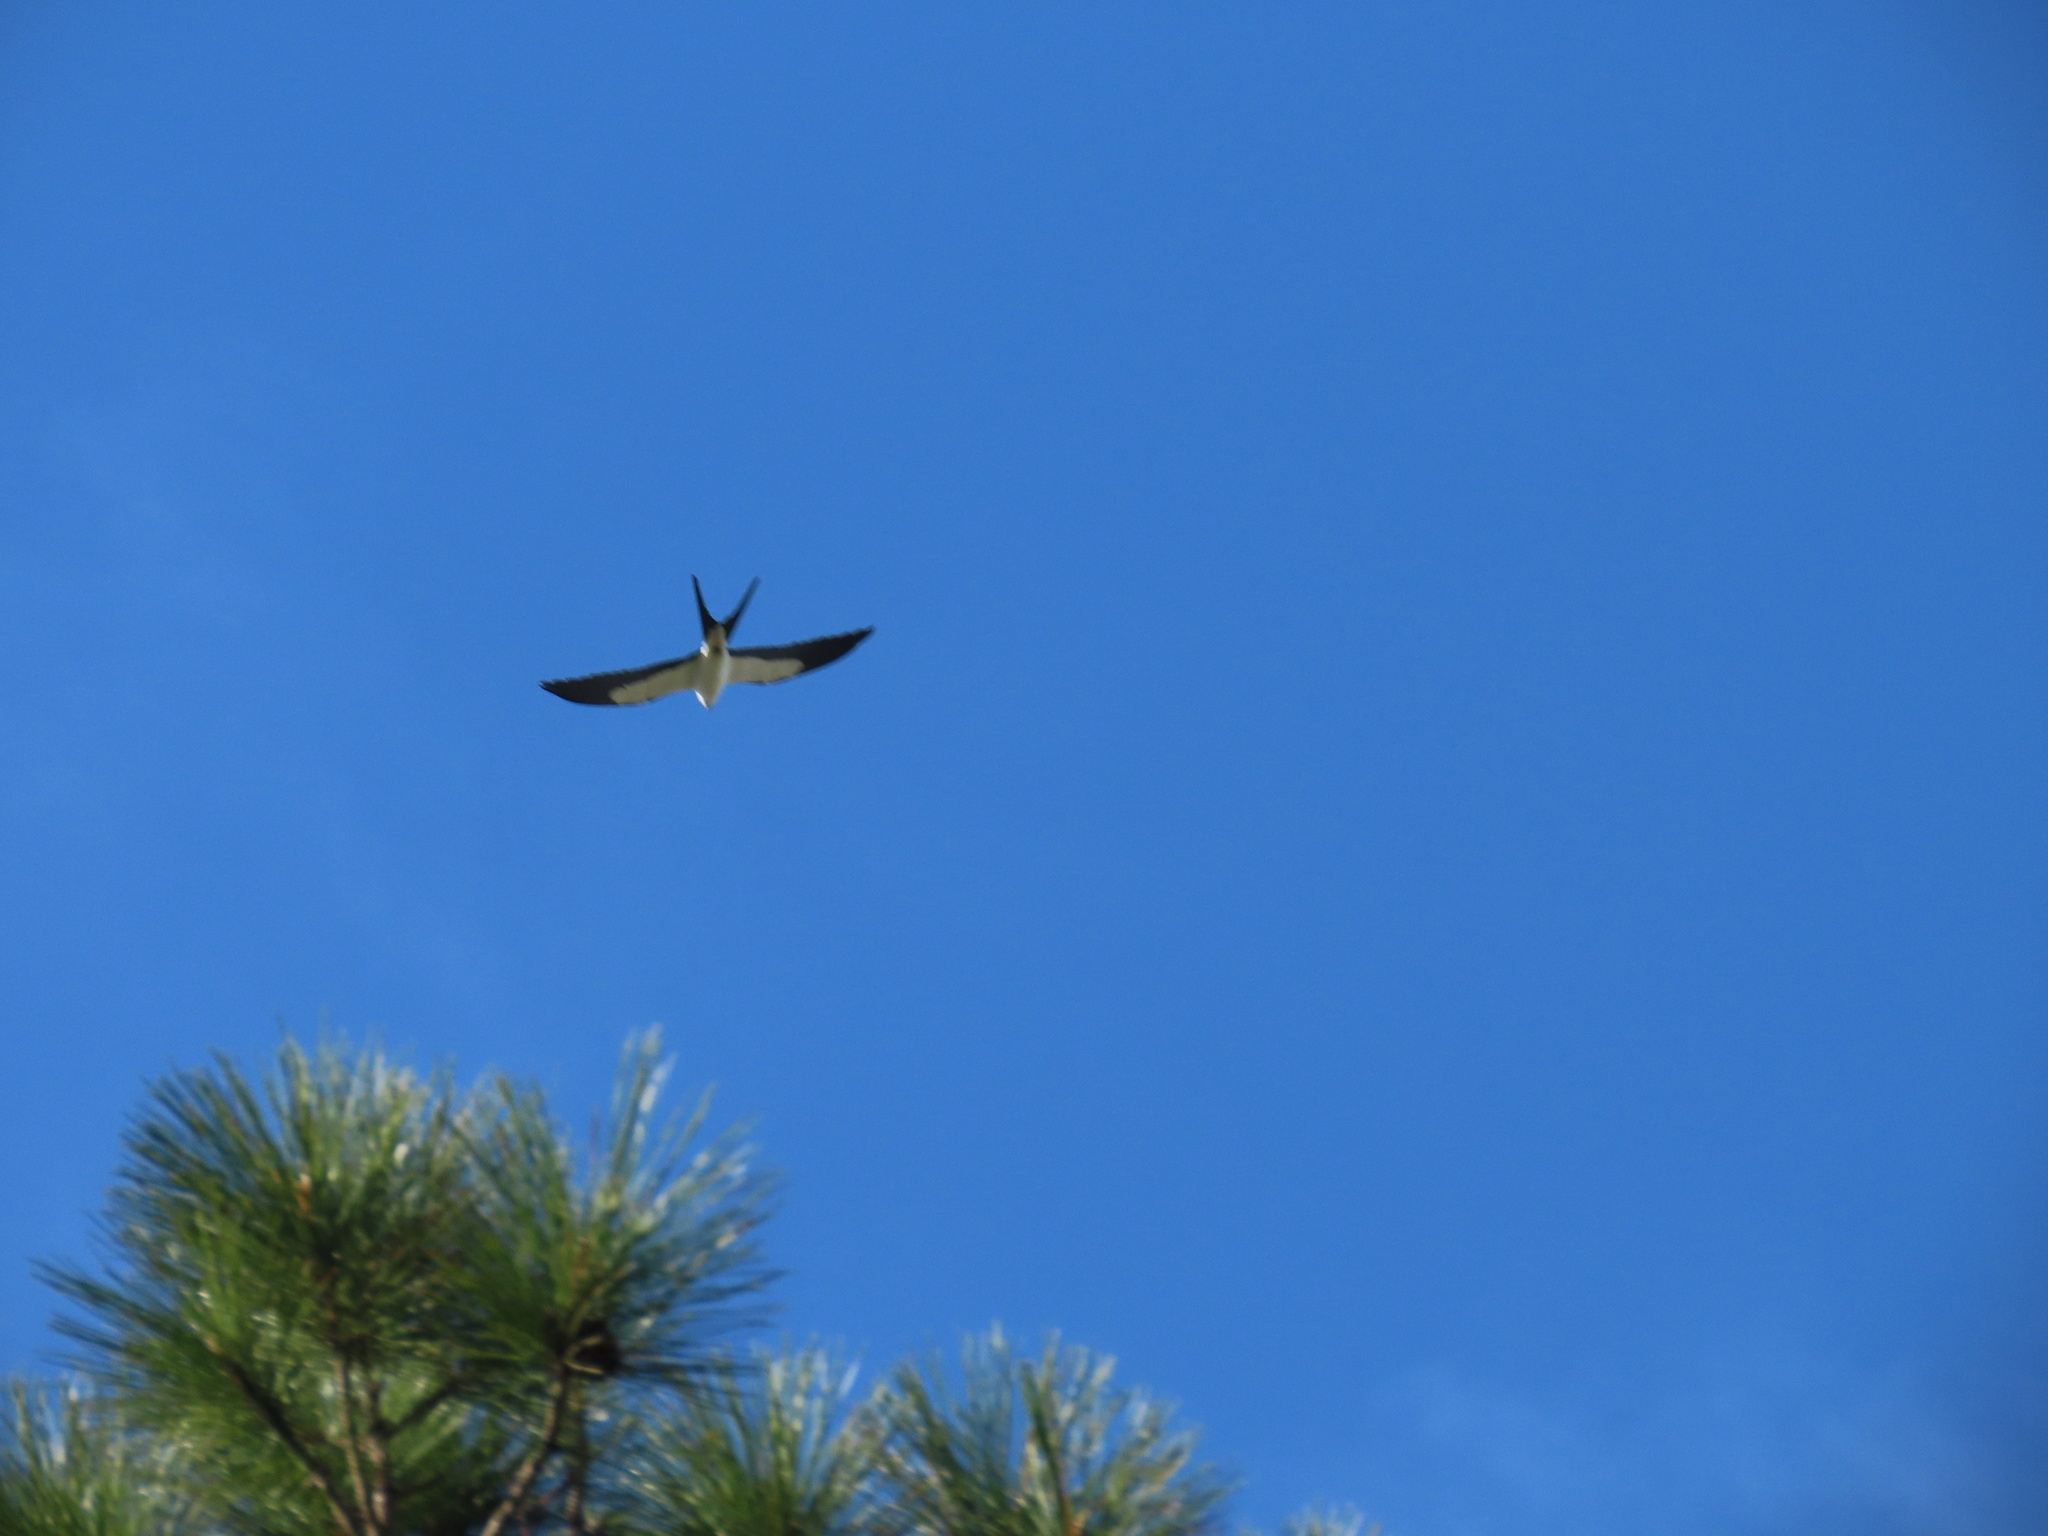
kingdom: Animalia
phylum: Chordata
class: Aves
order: Accipitriformes
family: Accipitridae
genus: Elanoides
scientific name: Elanoides forficatus
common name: Swallow-tailed kite
